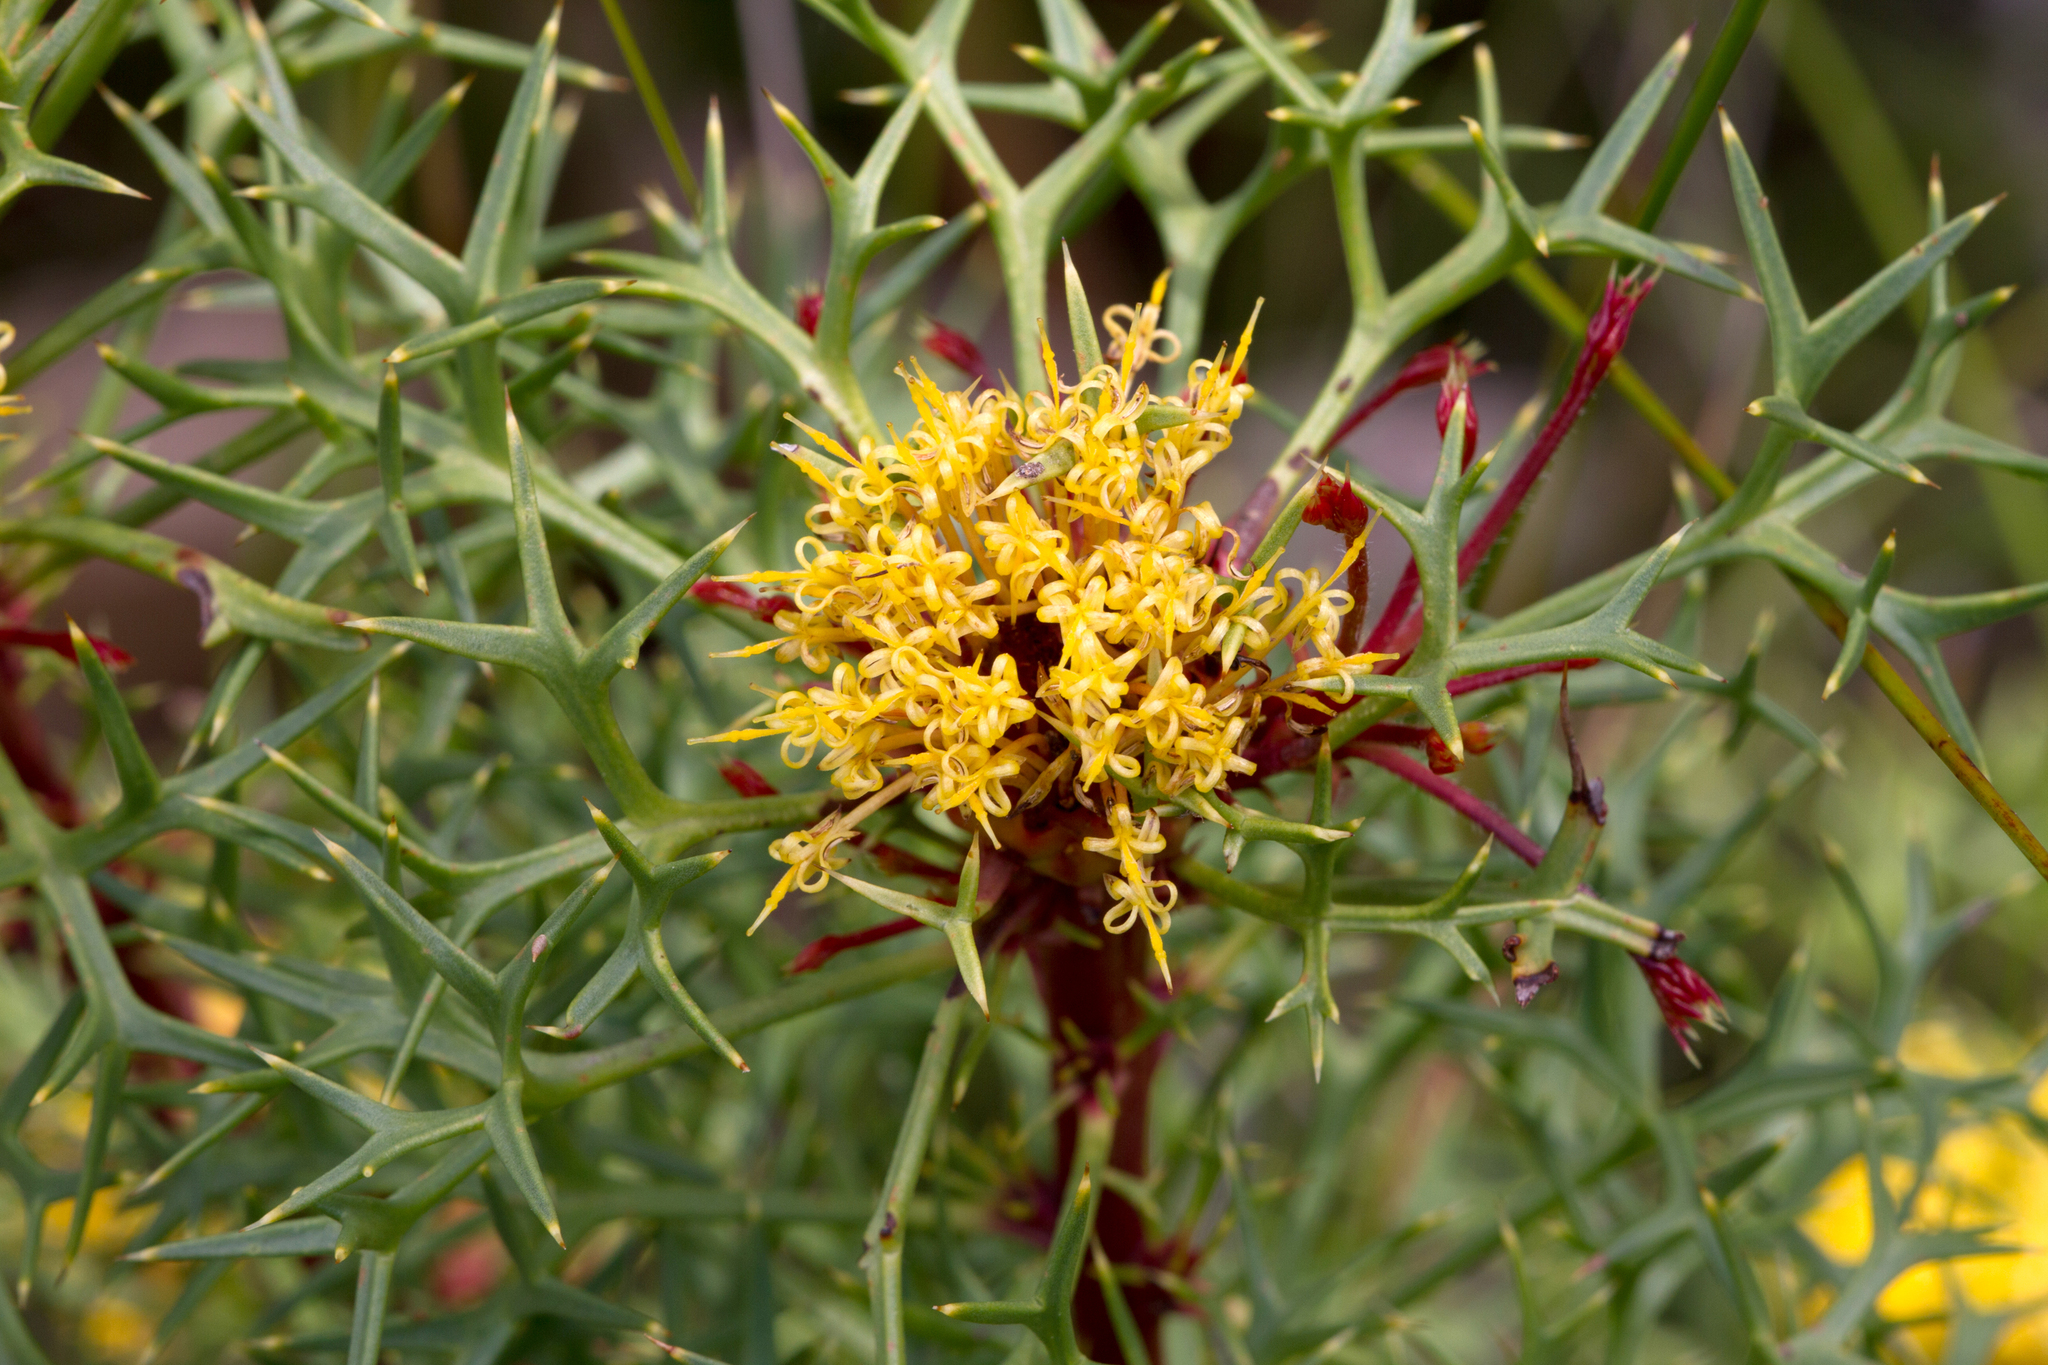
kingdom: Plantae
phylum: Tracheophyta
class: Magnoliopsida
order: Proteales
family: Proteaceae
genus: Isopogon
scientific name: Isopogon ceratophyllus
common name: Horny cone-bush
